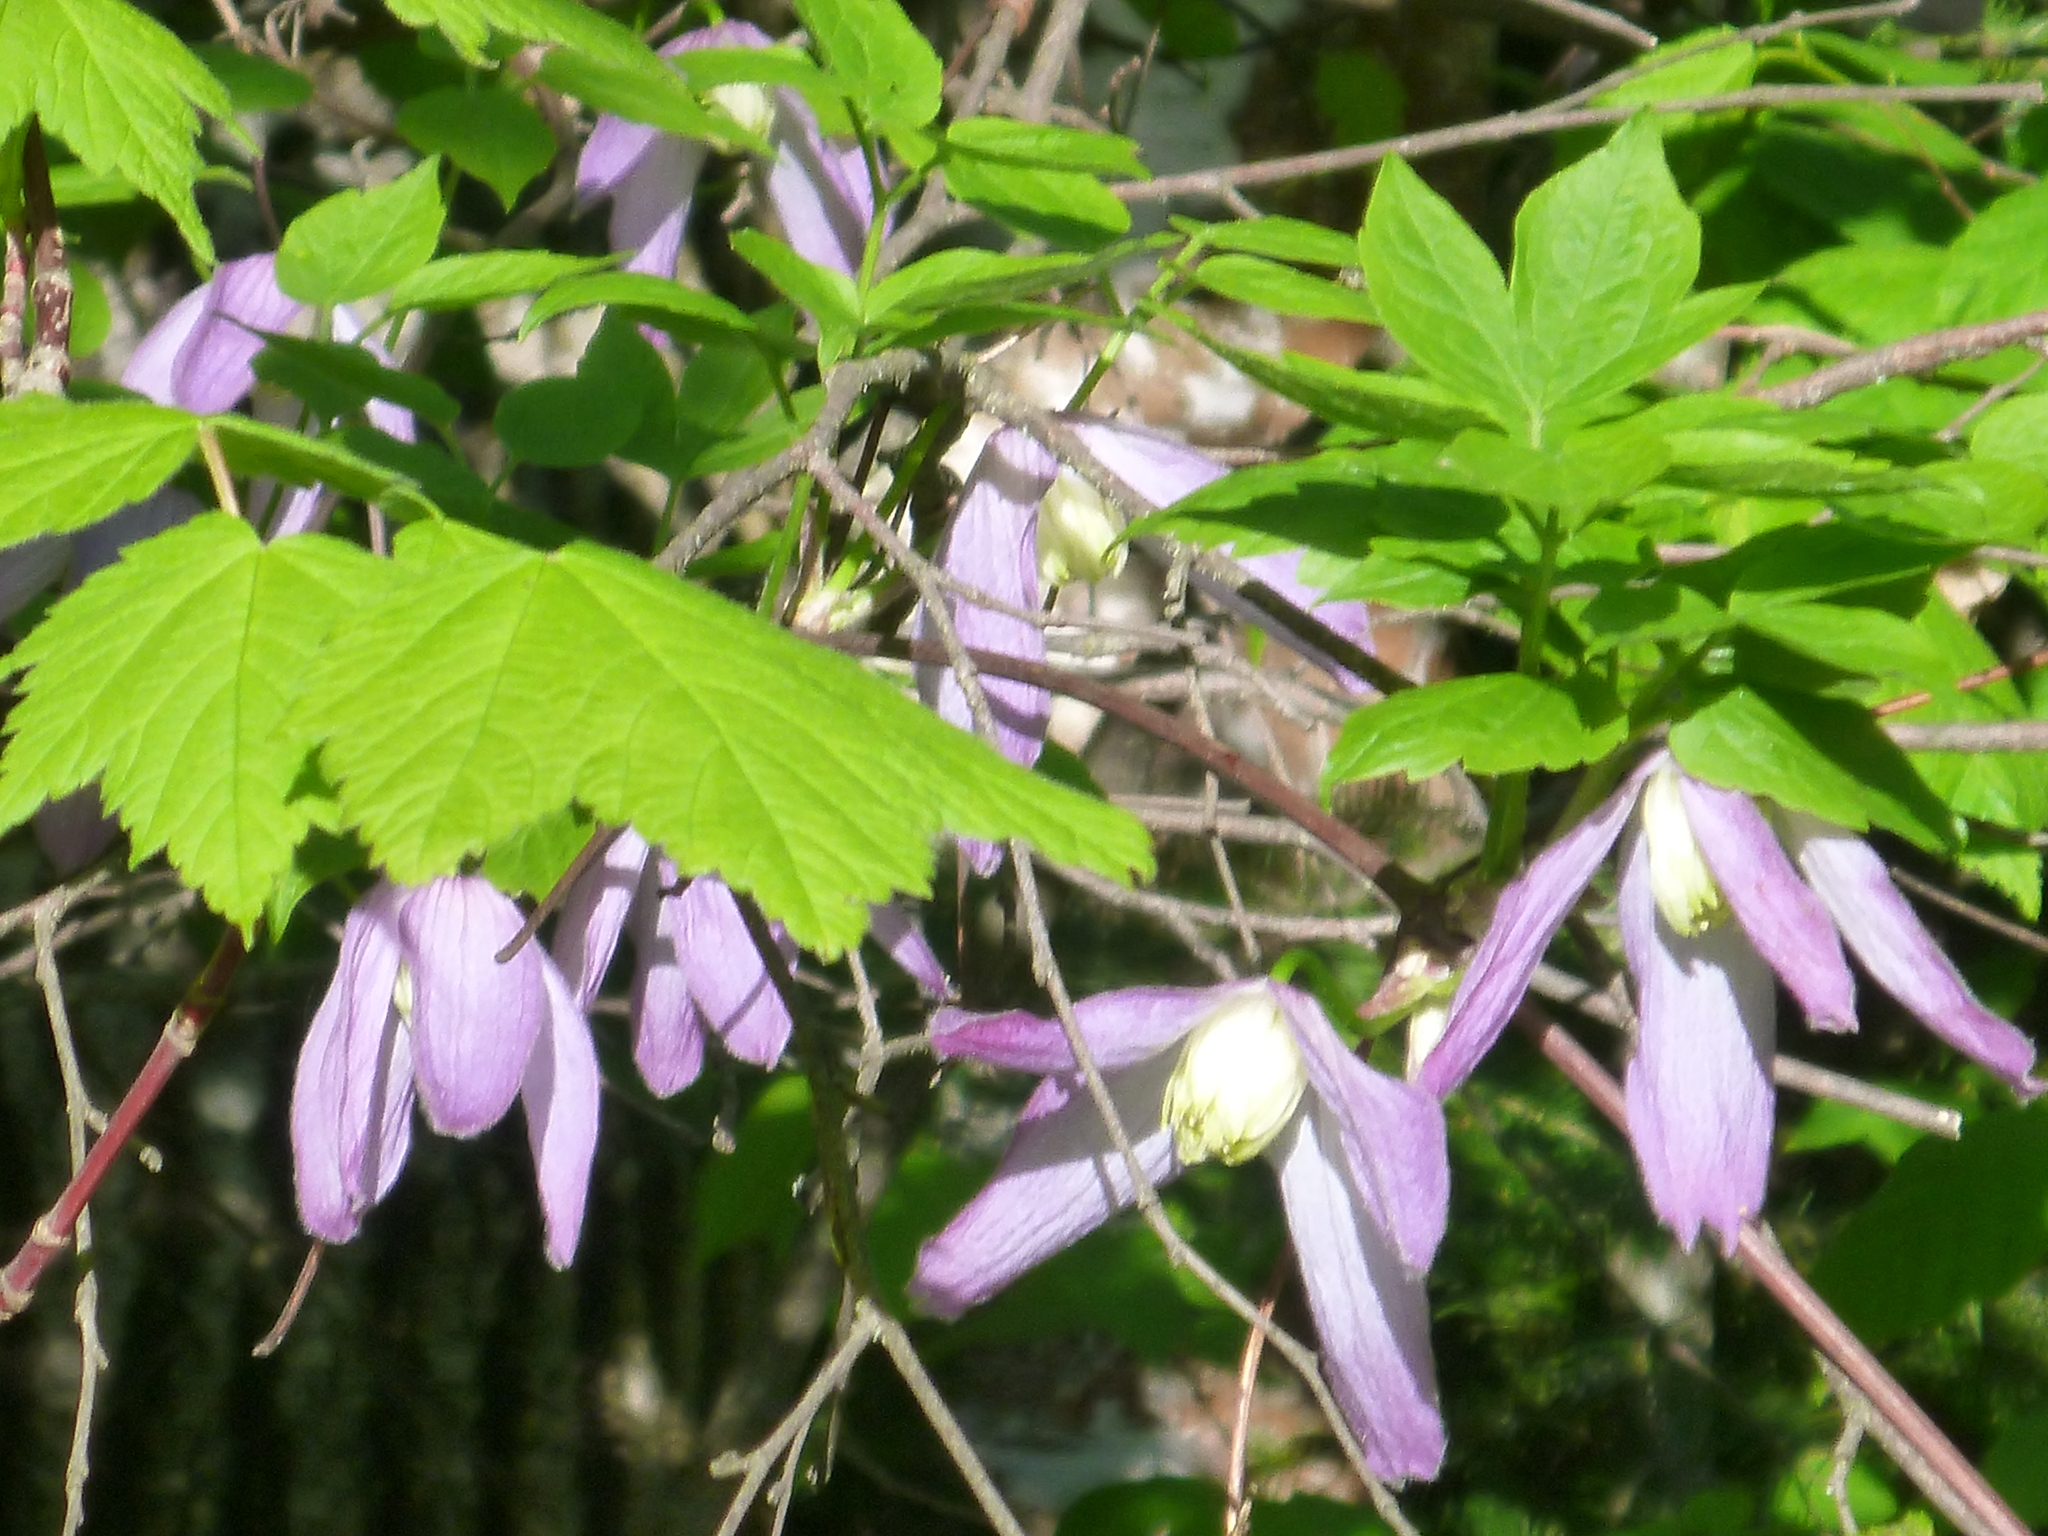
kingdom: Plantae
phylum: Tracheophyta
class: Magnoliopsida
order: Ranunculales
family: Ranunculaceae
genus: Clematis
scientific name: Clematis occidentalis
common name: Purple clematis
